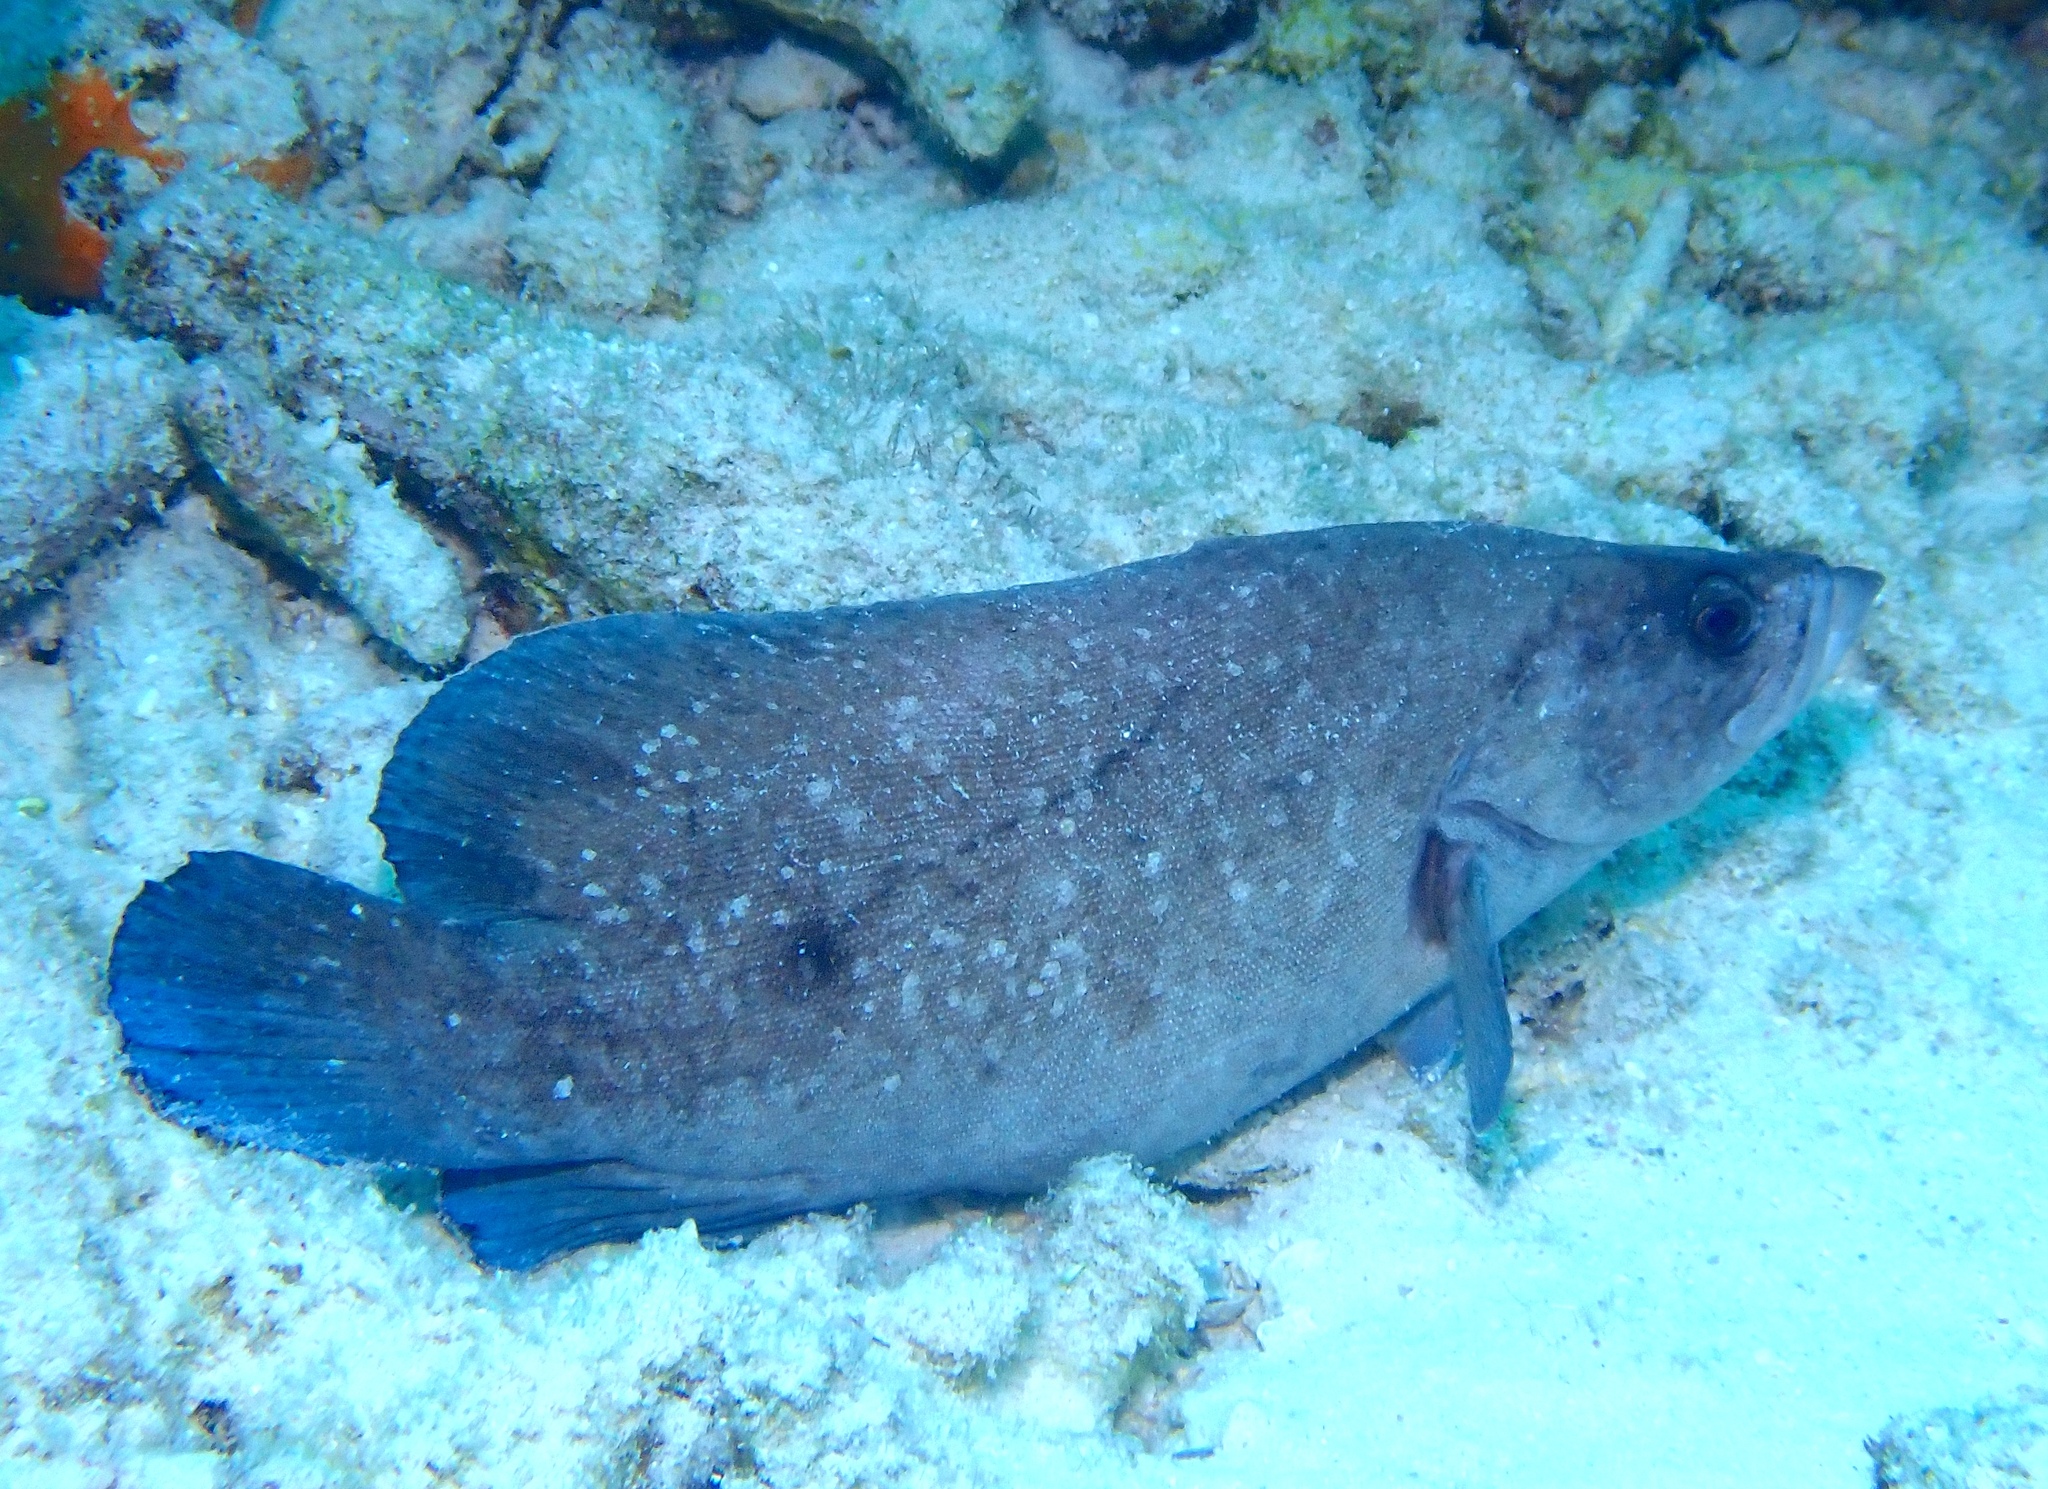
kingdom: Animalia
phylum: Chordata
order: Perciformes
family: Serranidae
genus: Rypticus
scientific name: Rypticus saponaceus
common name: Soapfish
